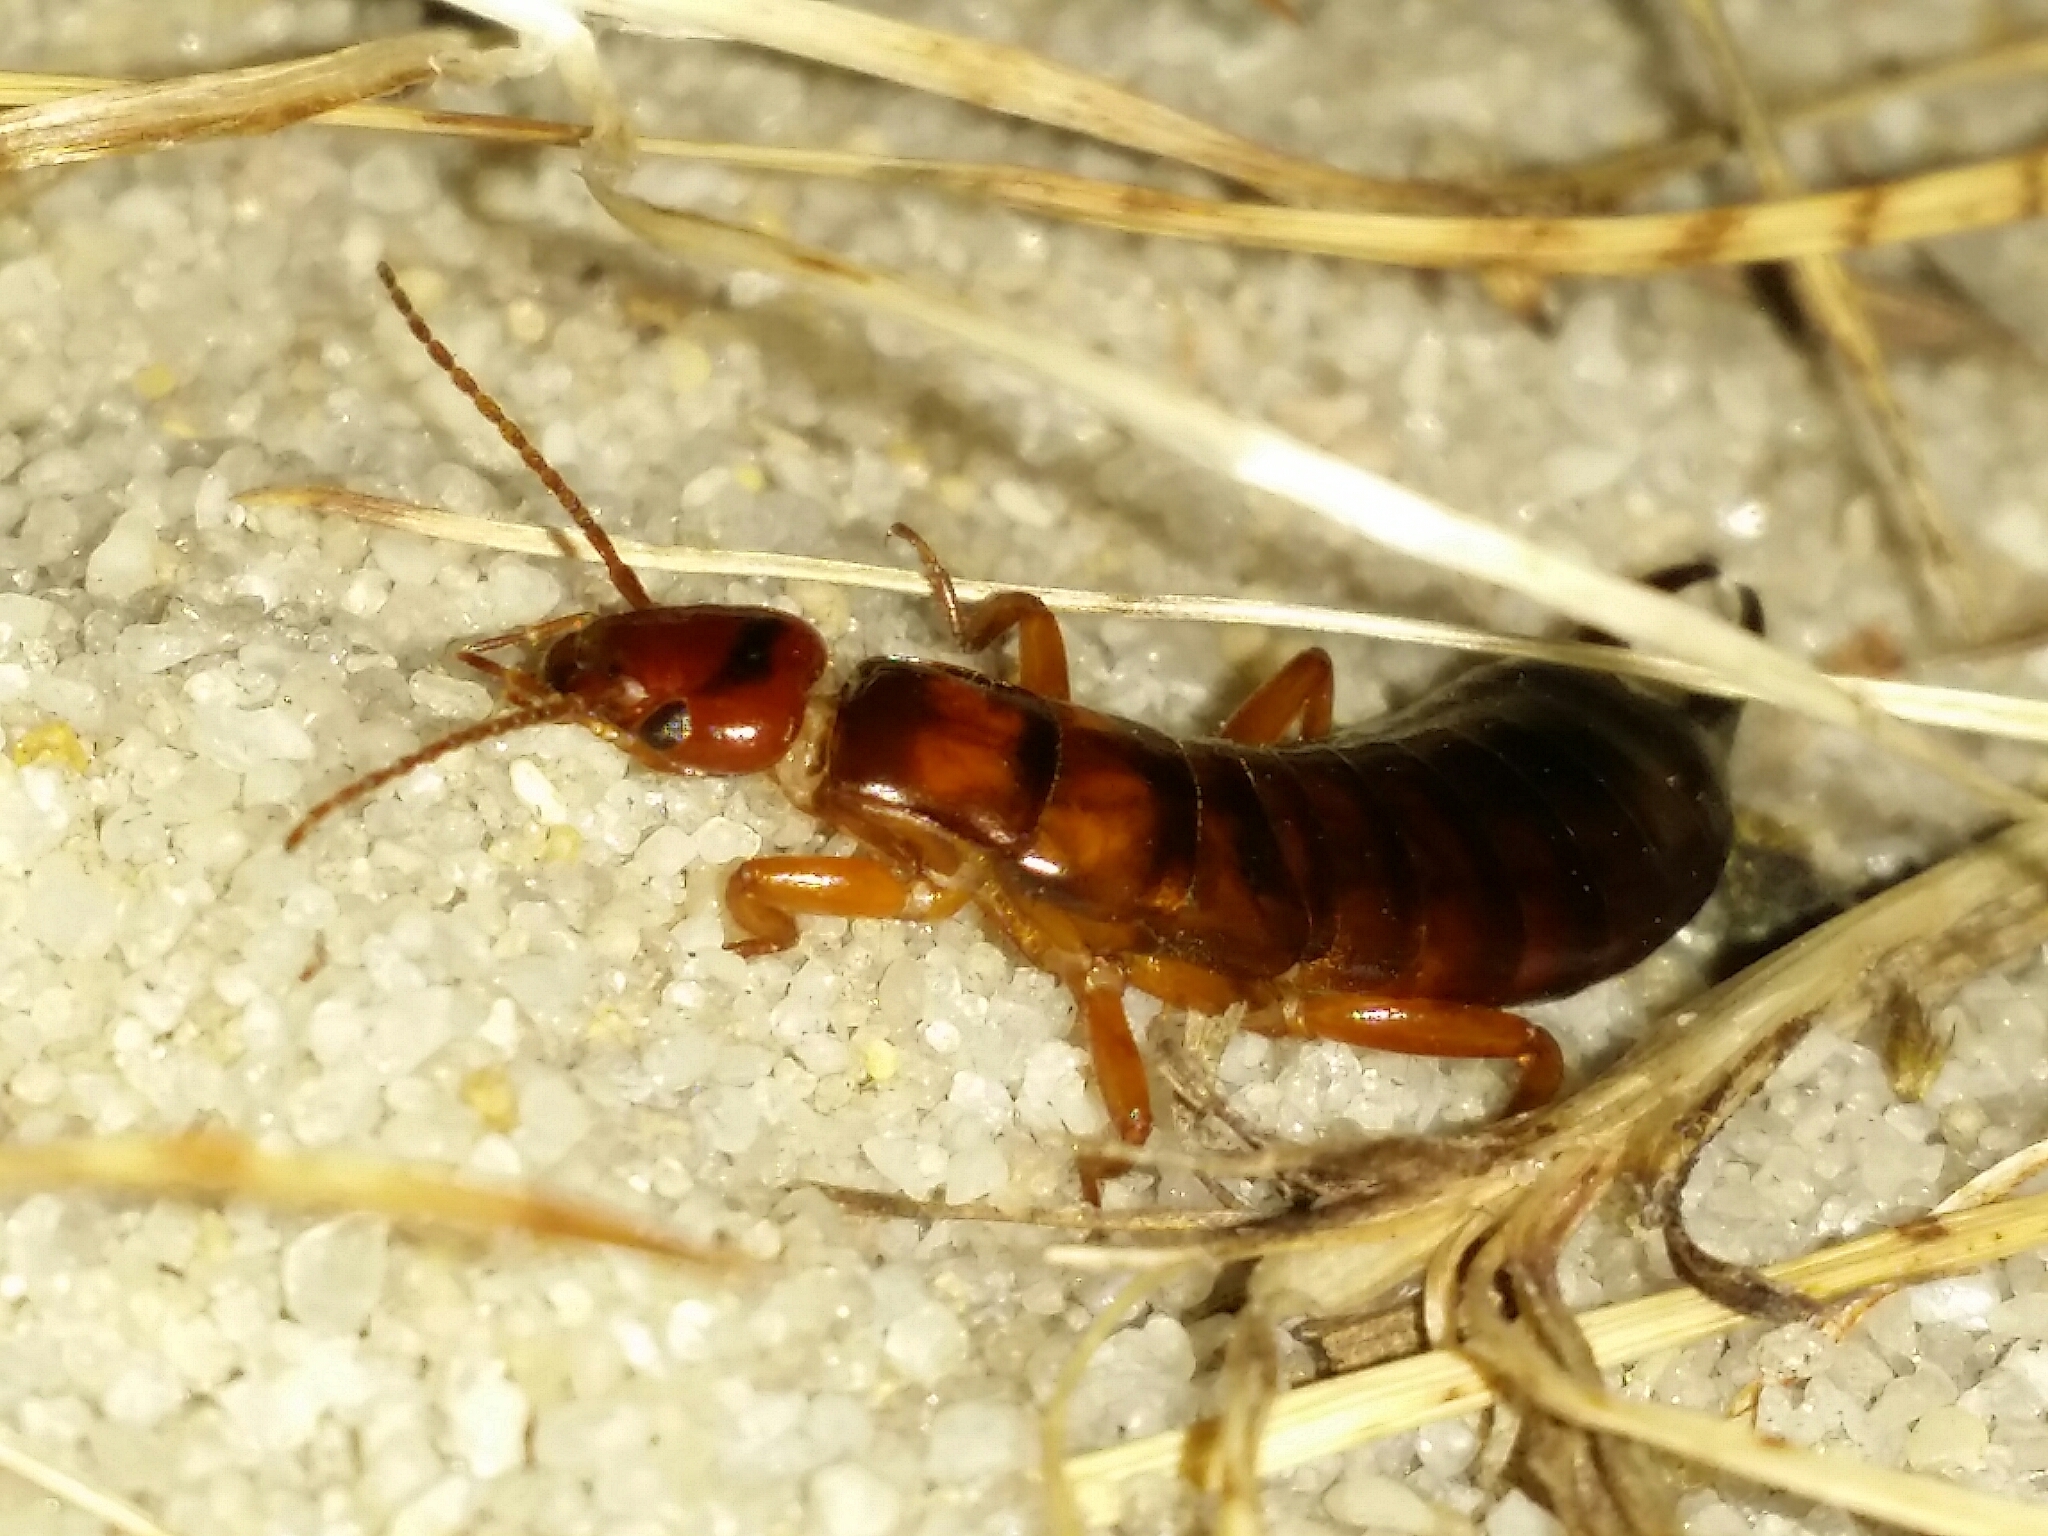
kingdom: Animalia
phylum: Arthropoda
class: Insecta
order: Dermaptera
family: Anisolabididae
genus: Carcinophora
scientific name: Carcinophora occidentalis
